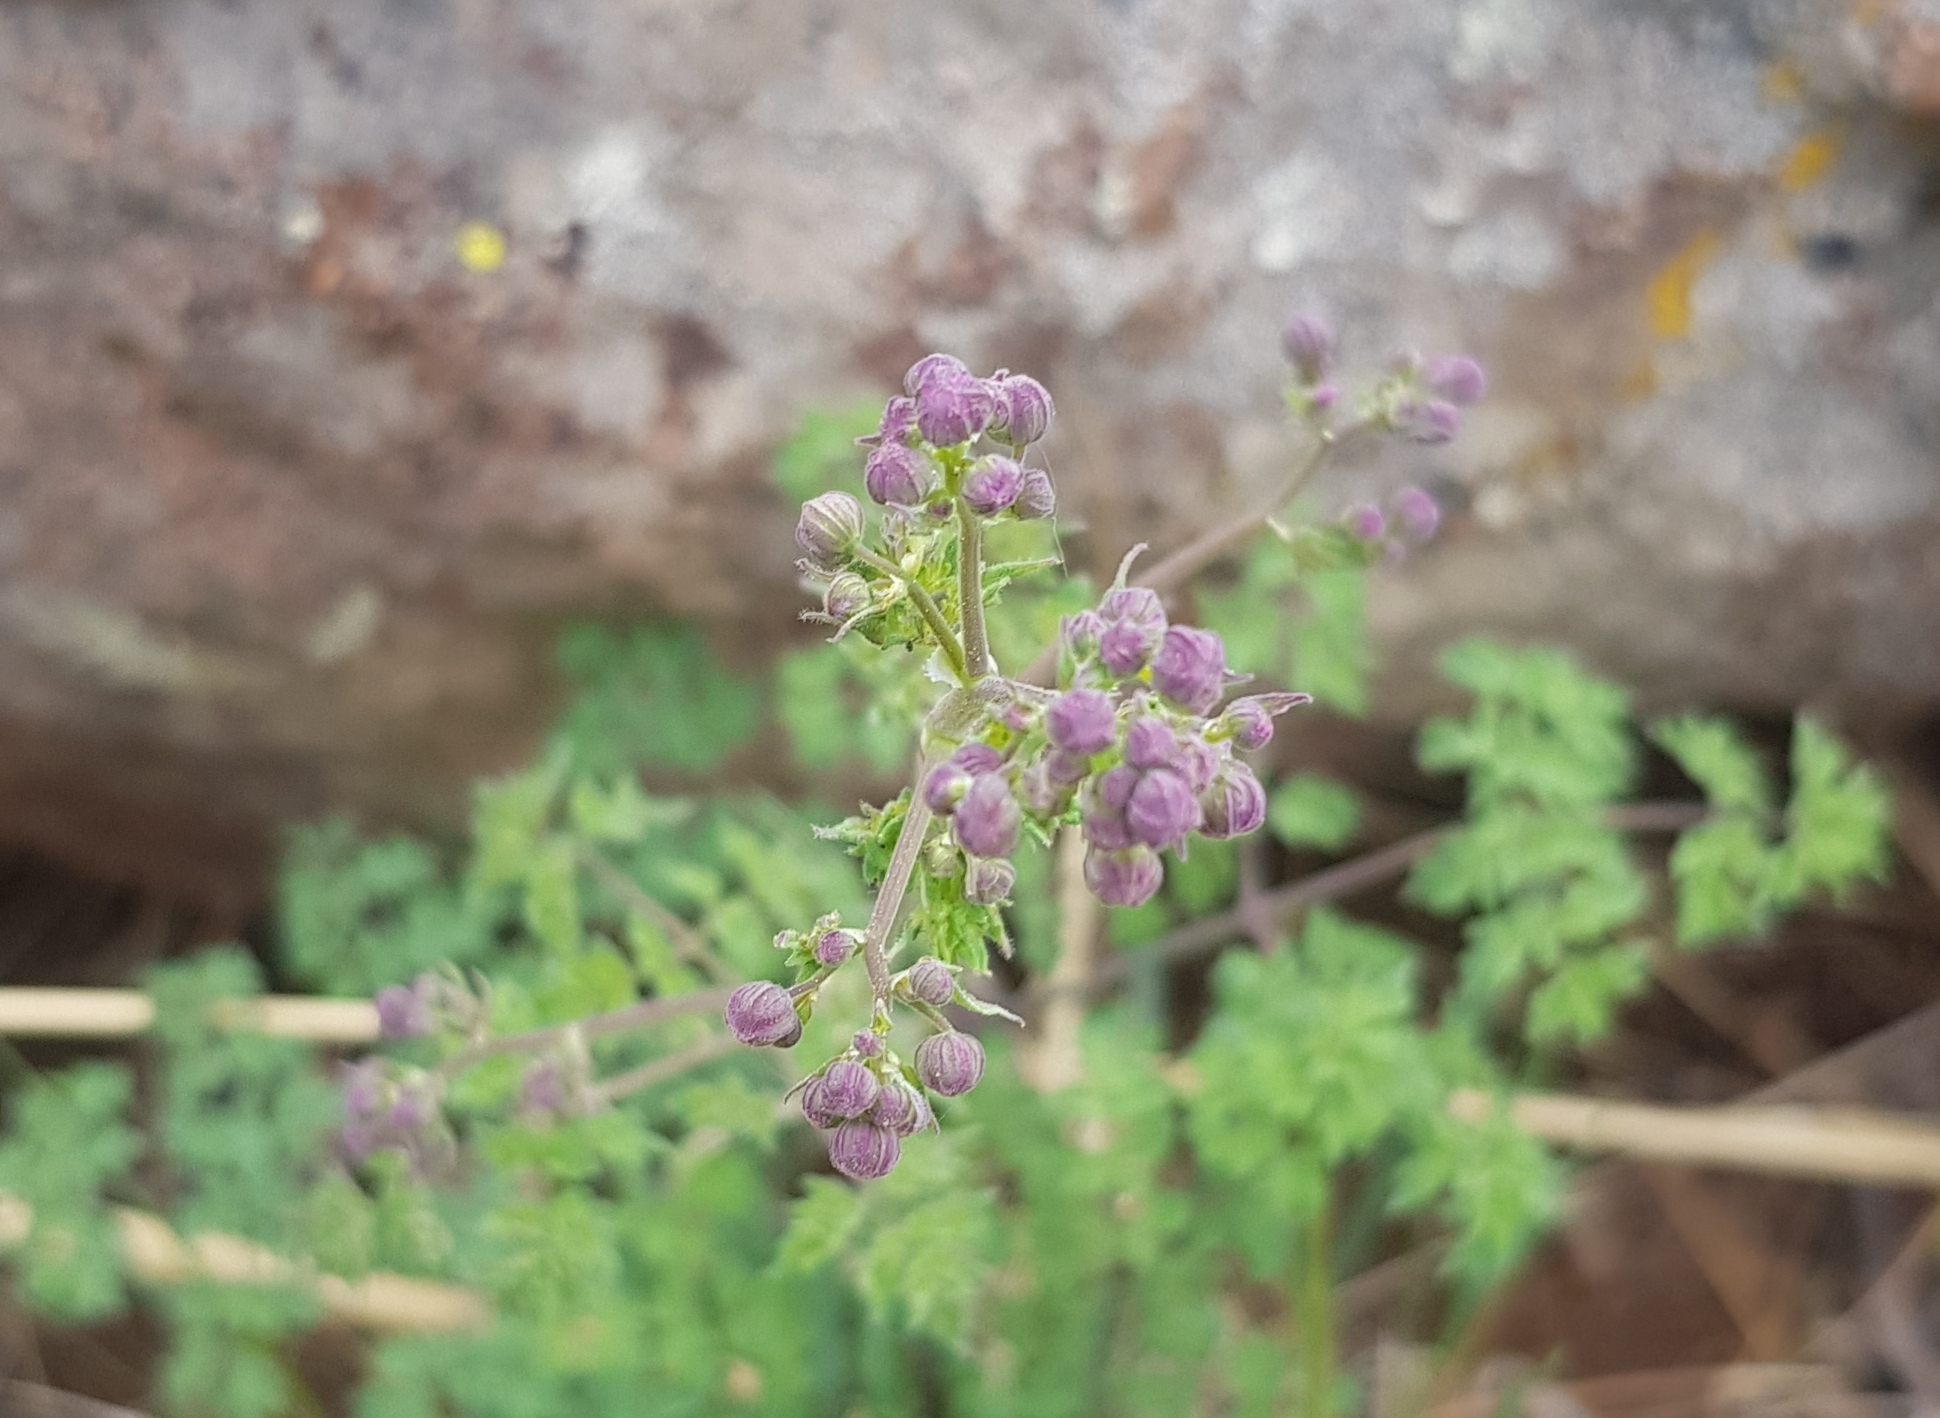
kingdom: Plantae
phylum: Tracheophyta
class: Magnoliopsida
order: Ranunculales
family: Ranunculaceae
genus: Thalictrum
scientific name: Thalictrum foetidum
